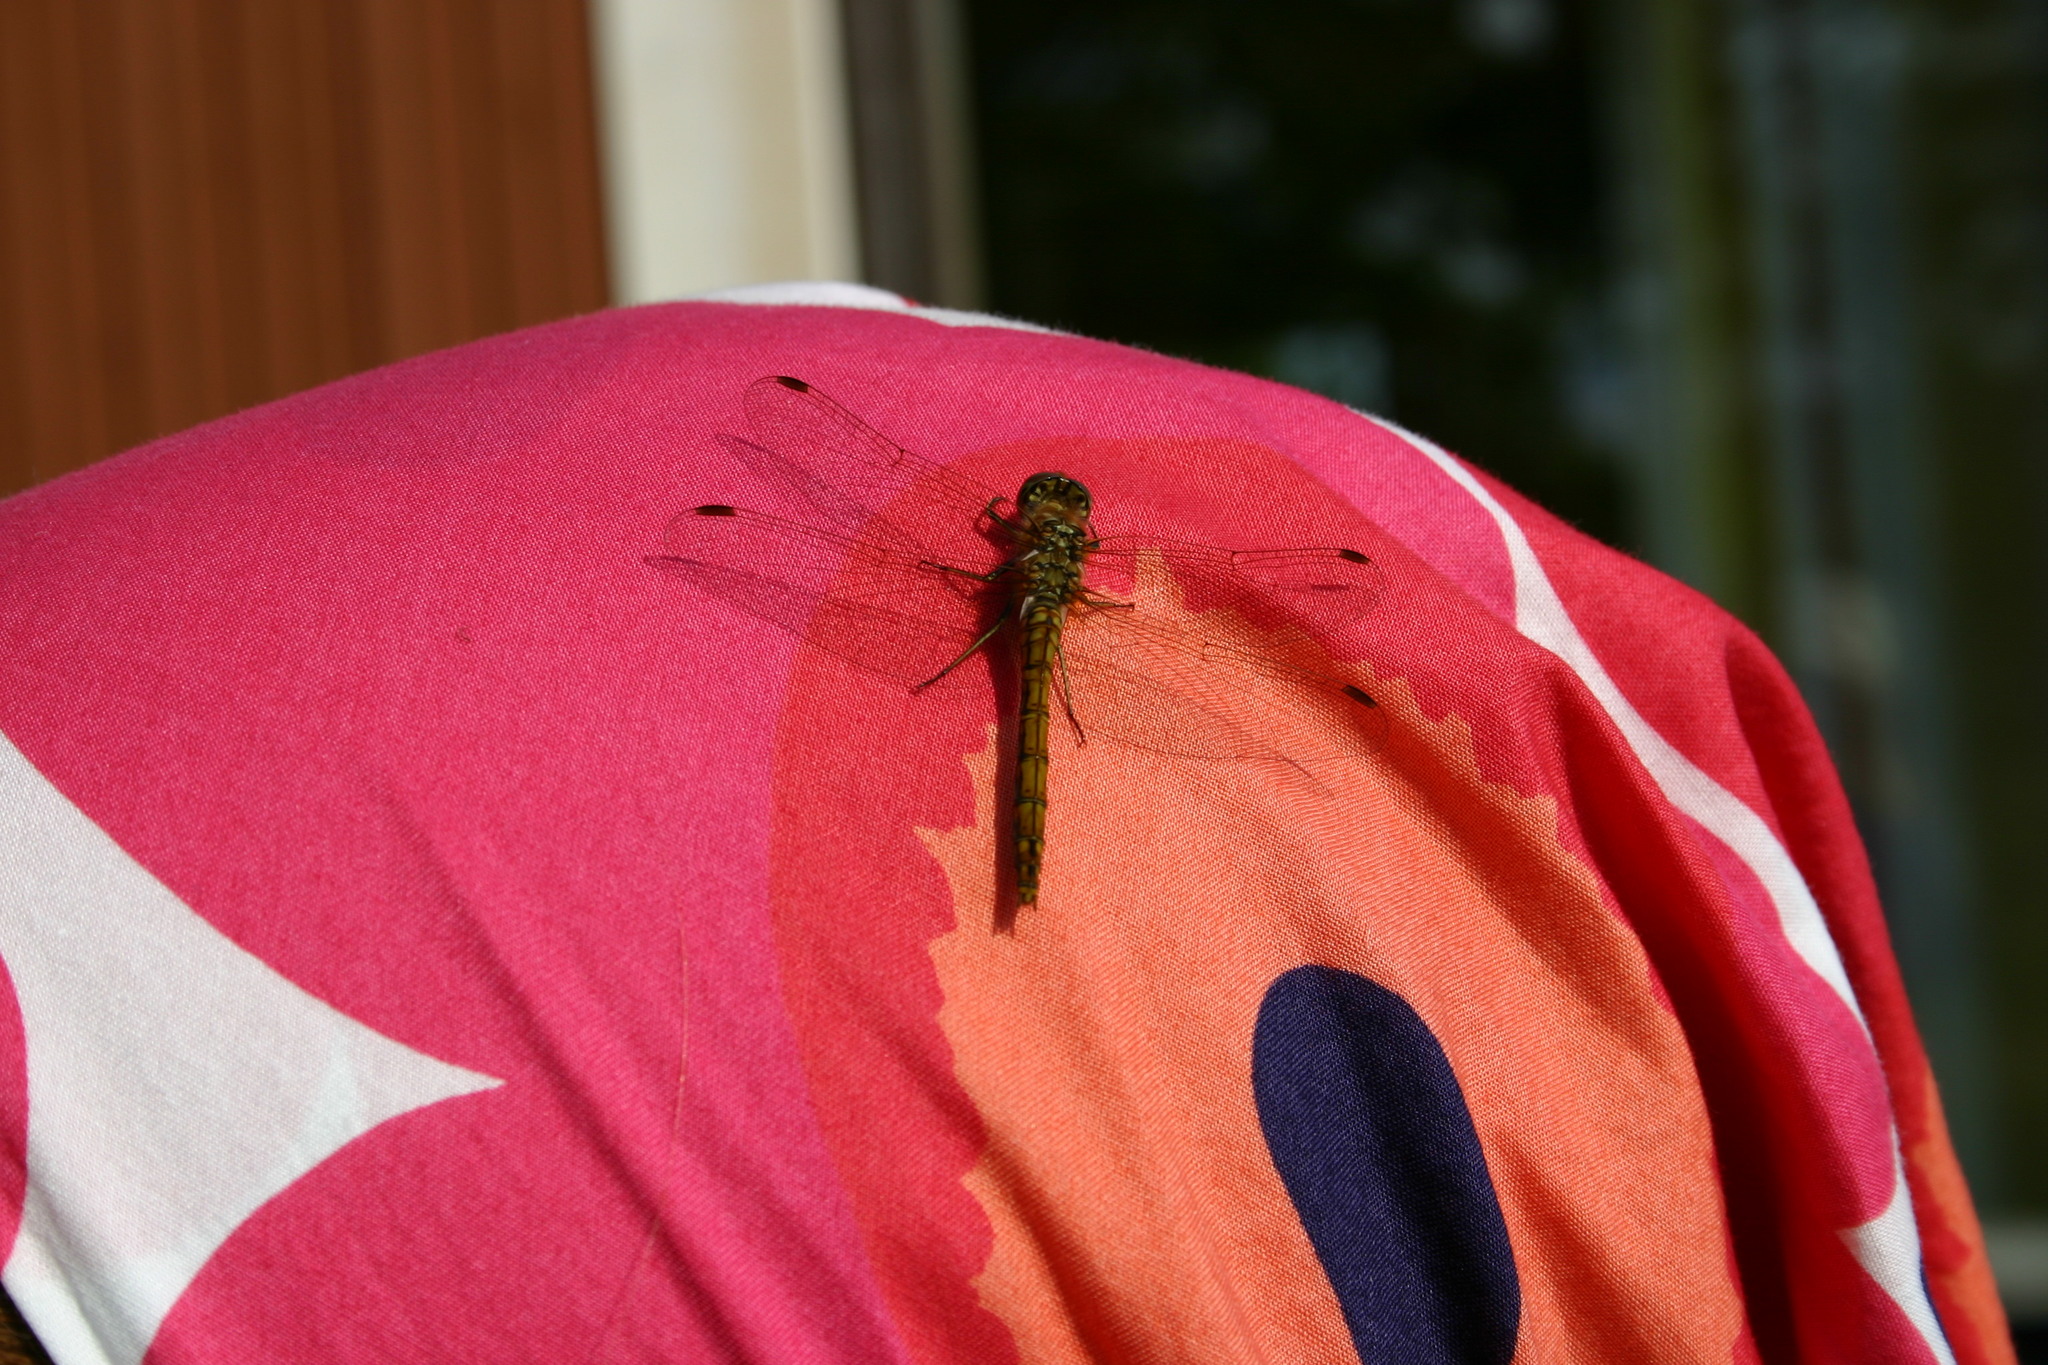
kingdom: Animalia
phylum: Arthropoda
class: Insecta
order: Odonata
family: Libellulidae
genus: Sympetrum
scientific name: Sympetrum vulgatum
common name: Vagrant darter
